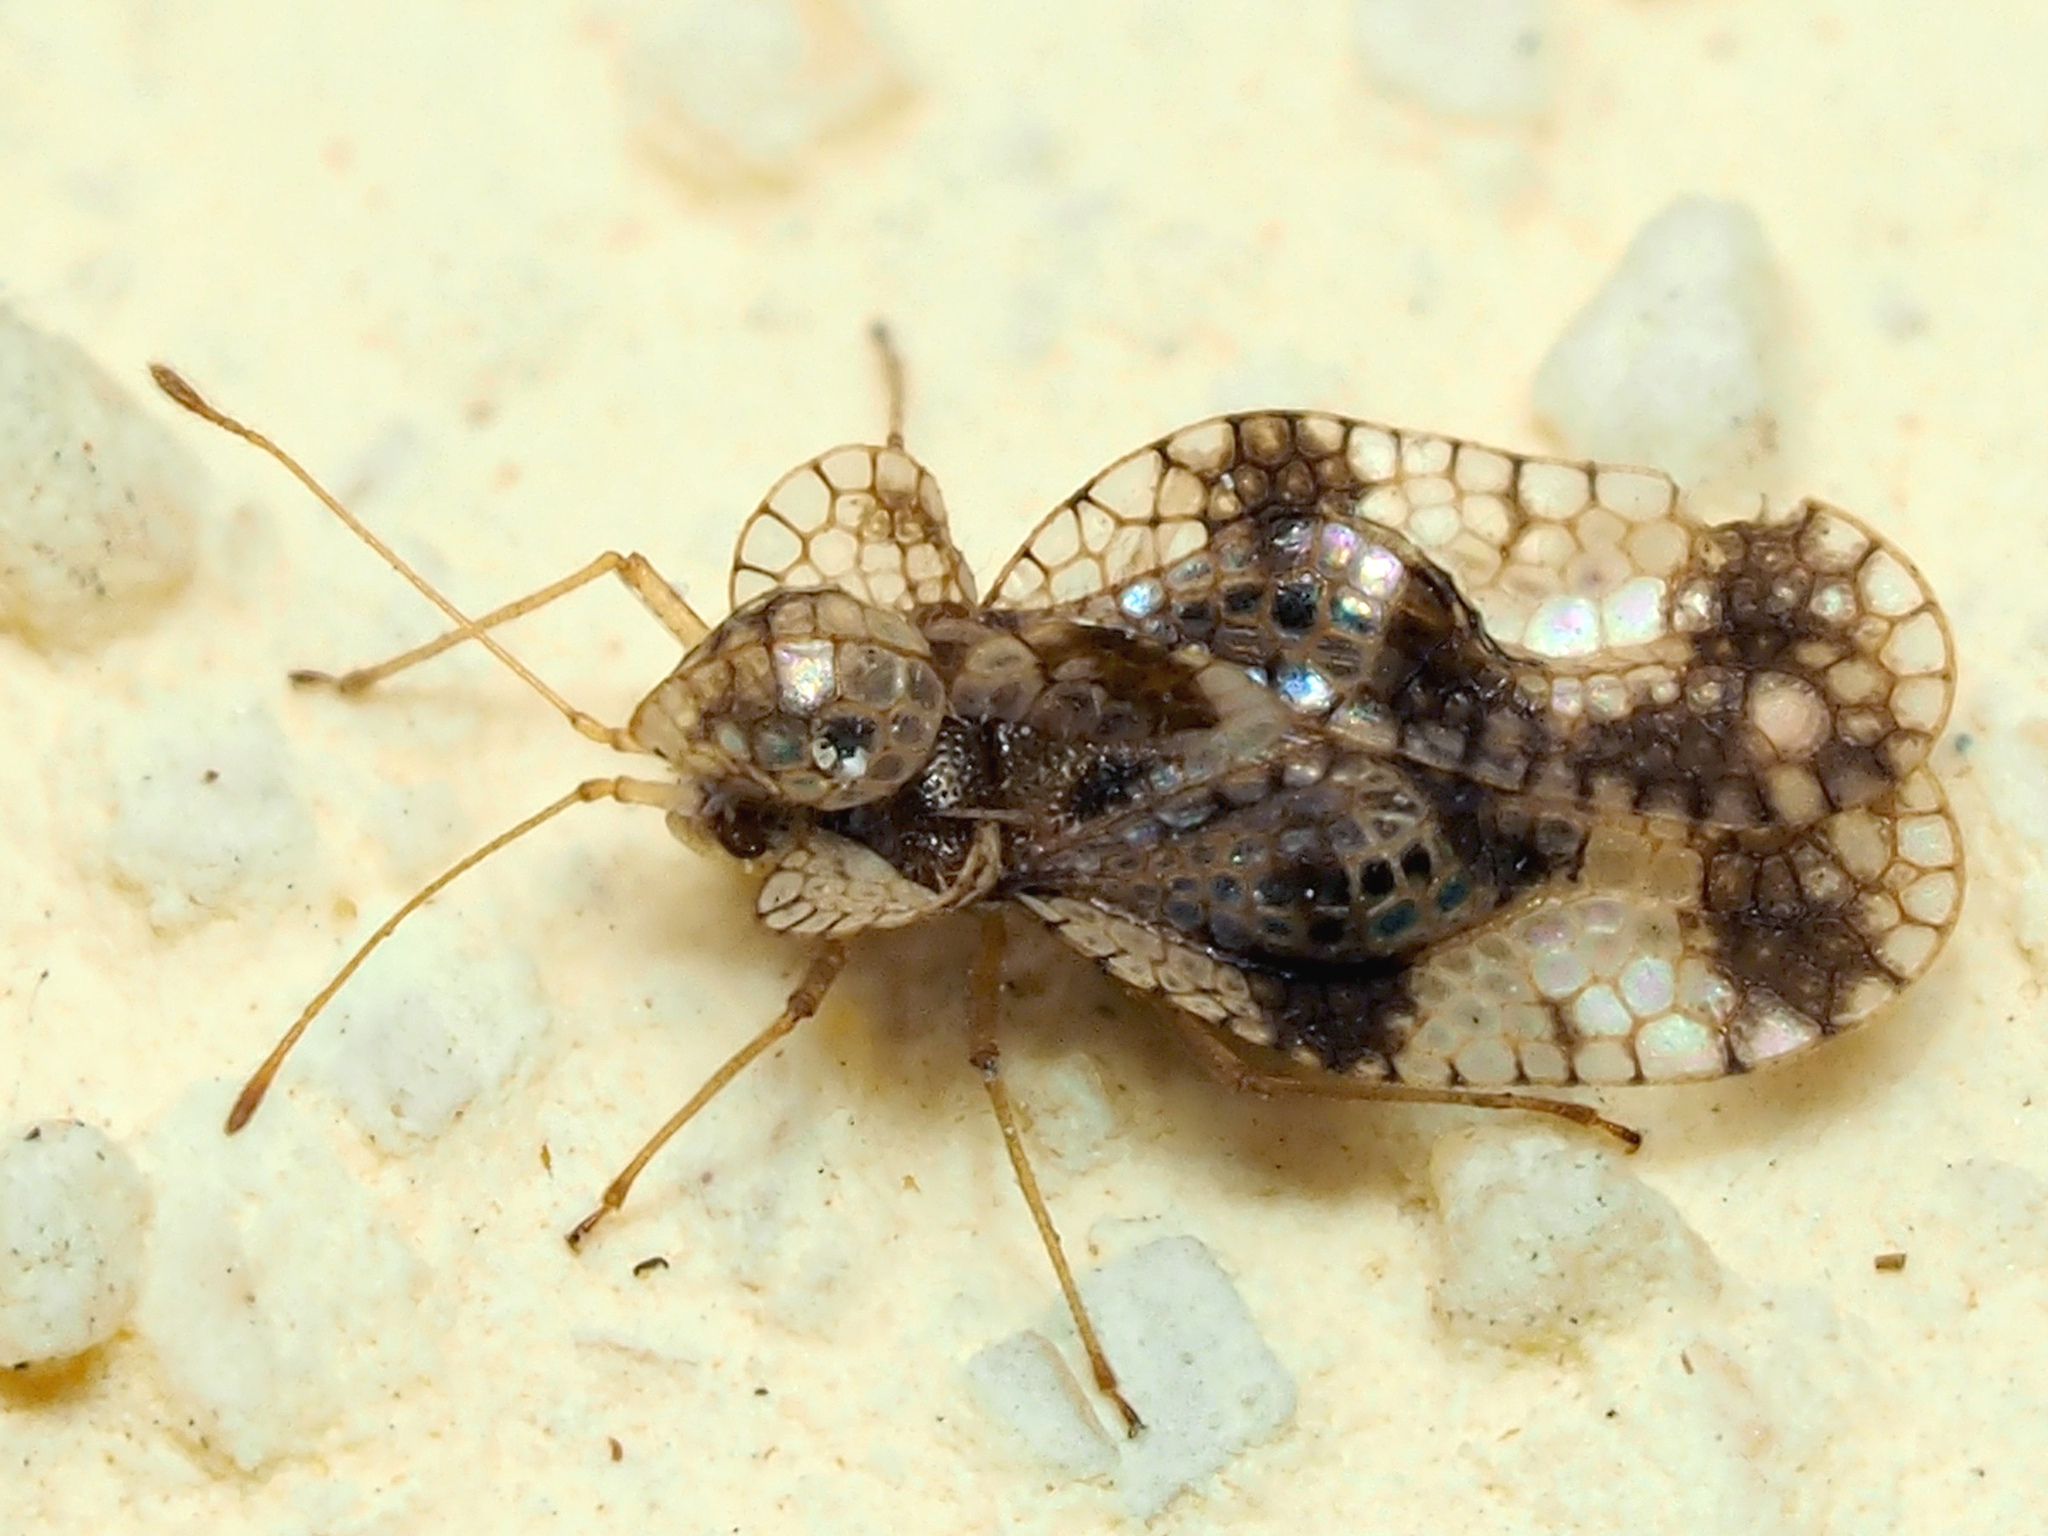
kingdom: Animalia
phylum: Arthropoda
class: Insecta
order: Hemiptera
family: Tingidae
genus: Stephanitis
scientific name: Stephanitis pyri
